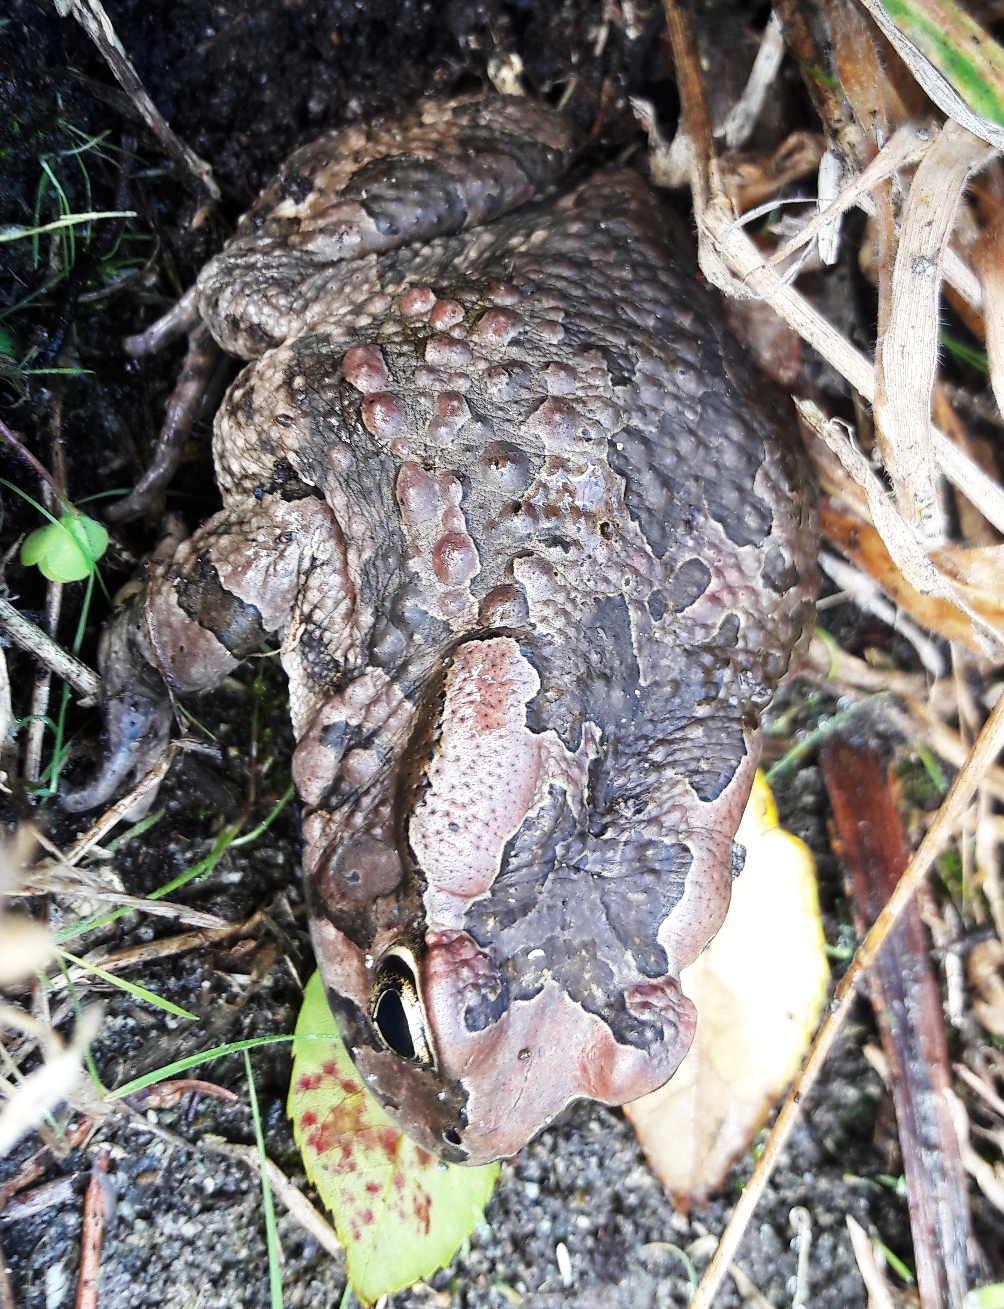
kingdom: Animalia
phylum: Chordata
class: Amphibia
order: Anura
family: Bufonidae
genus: Sclerophrys
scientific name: Sclerophrys capensis
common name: Ranger’s toad
